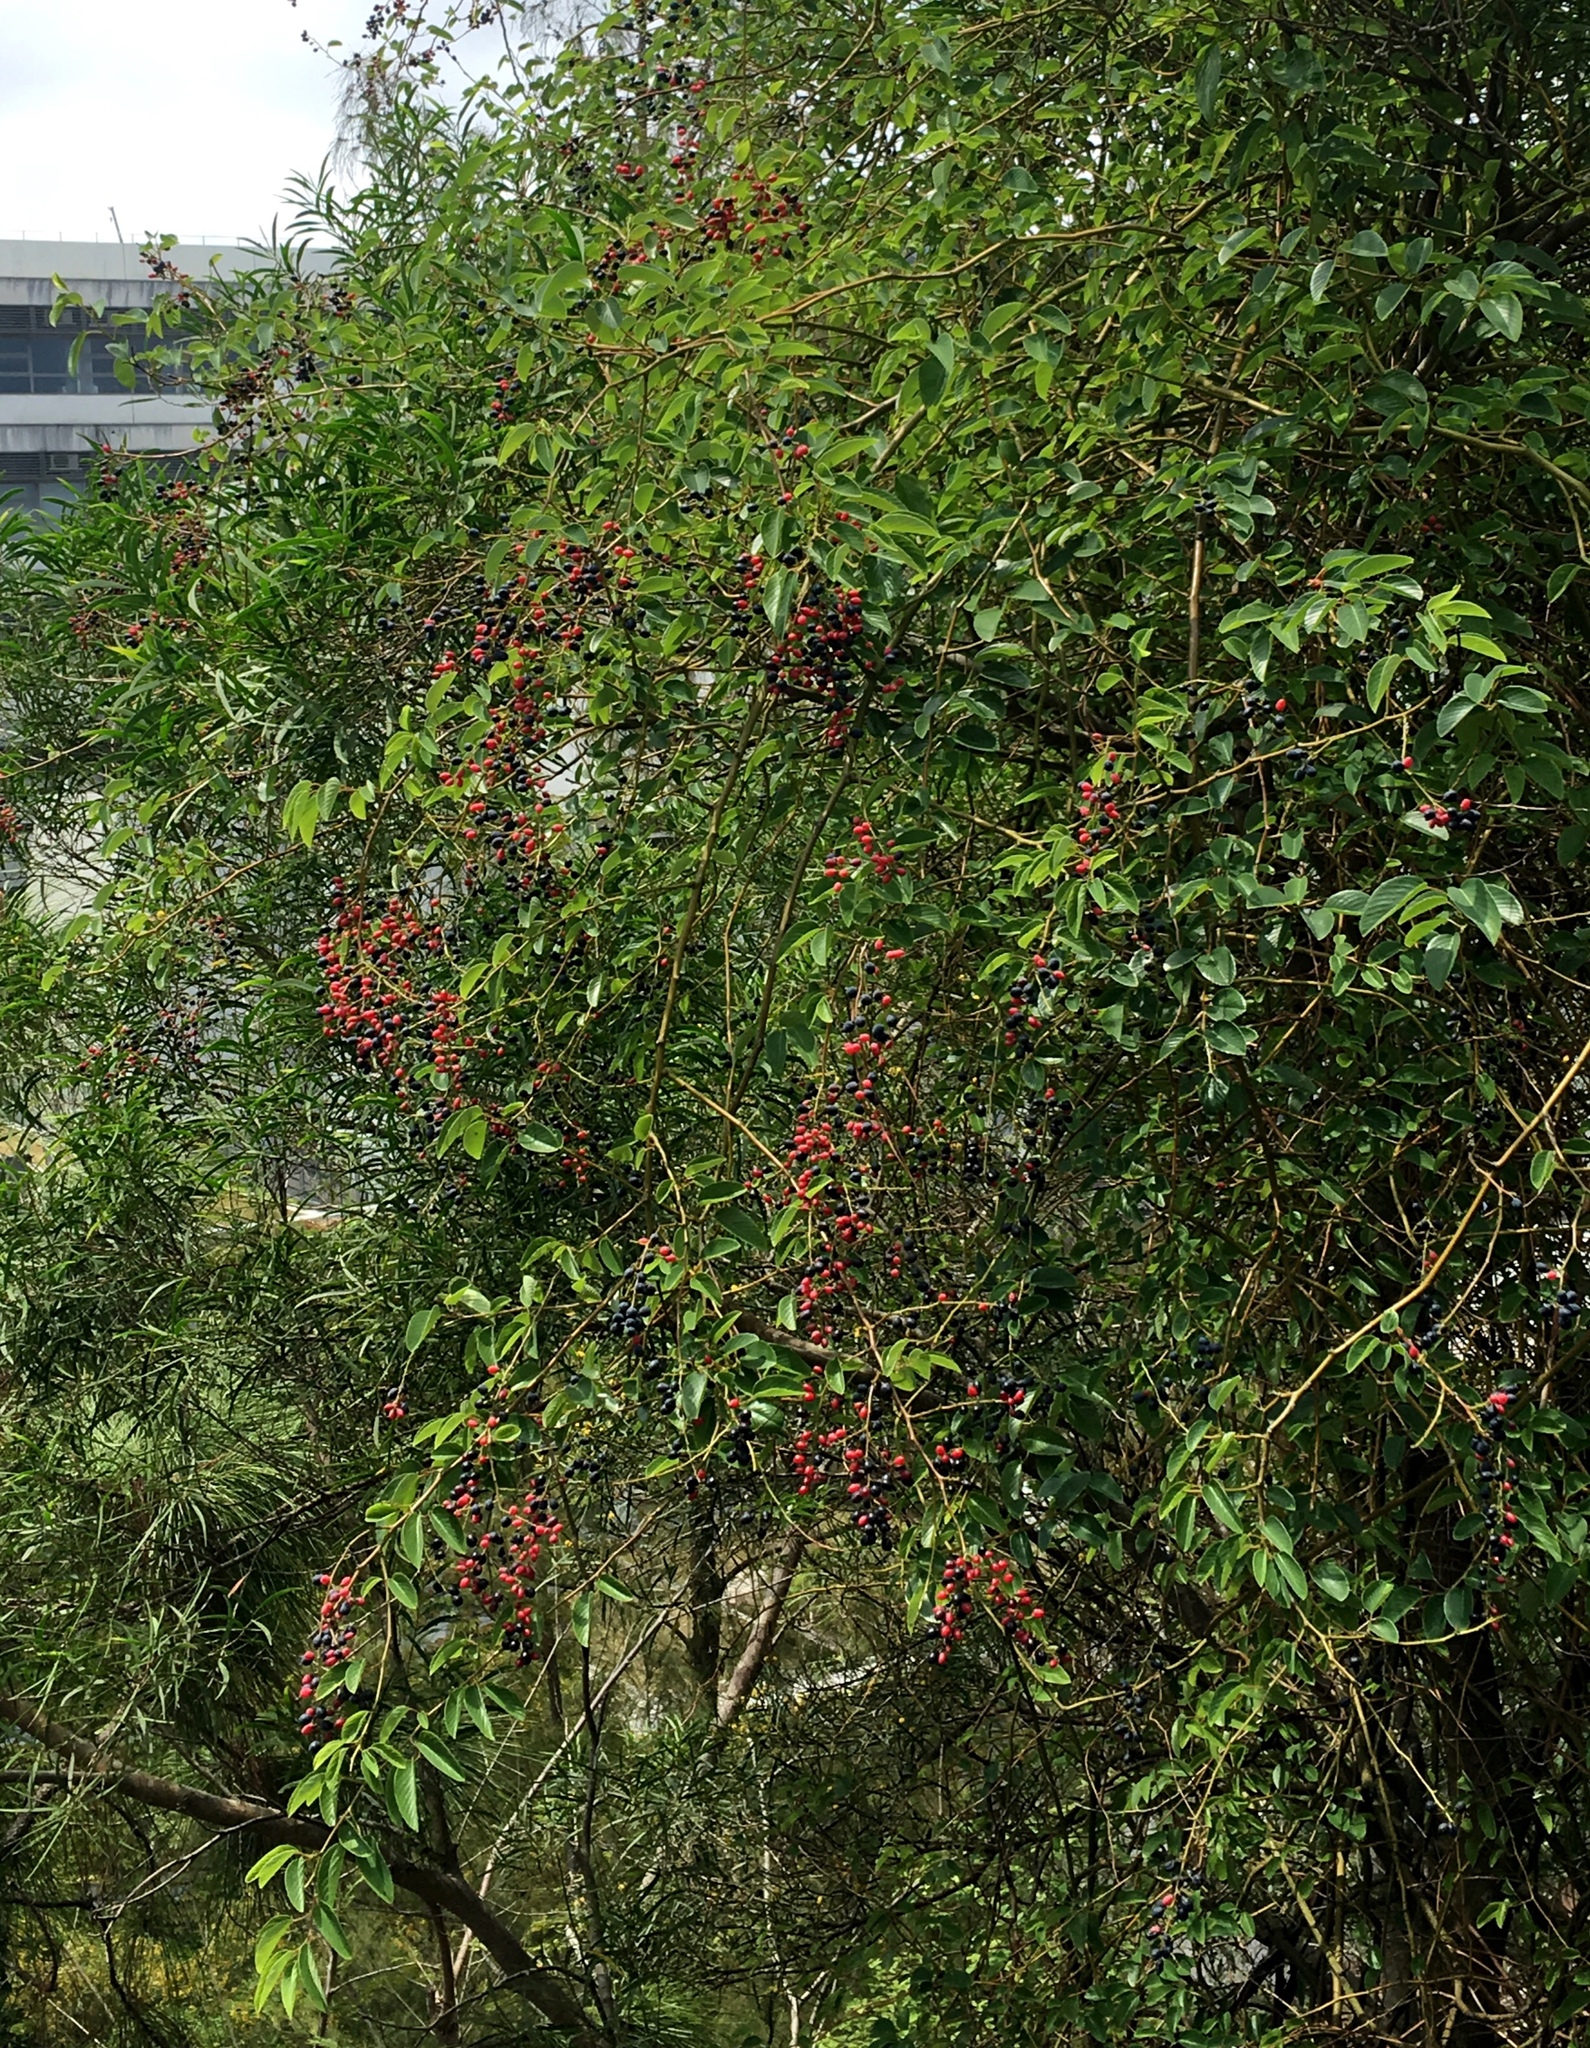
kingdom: Plantae
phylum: Tracheophyta
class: Magnoliopsida
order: Rosales
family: Rhamnaceae
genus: Berchemia
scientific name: Berchemia floribunda
